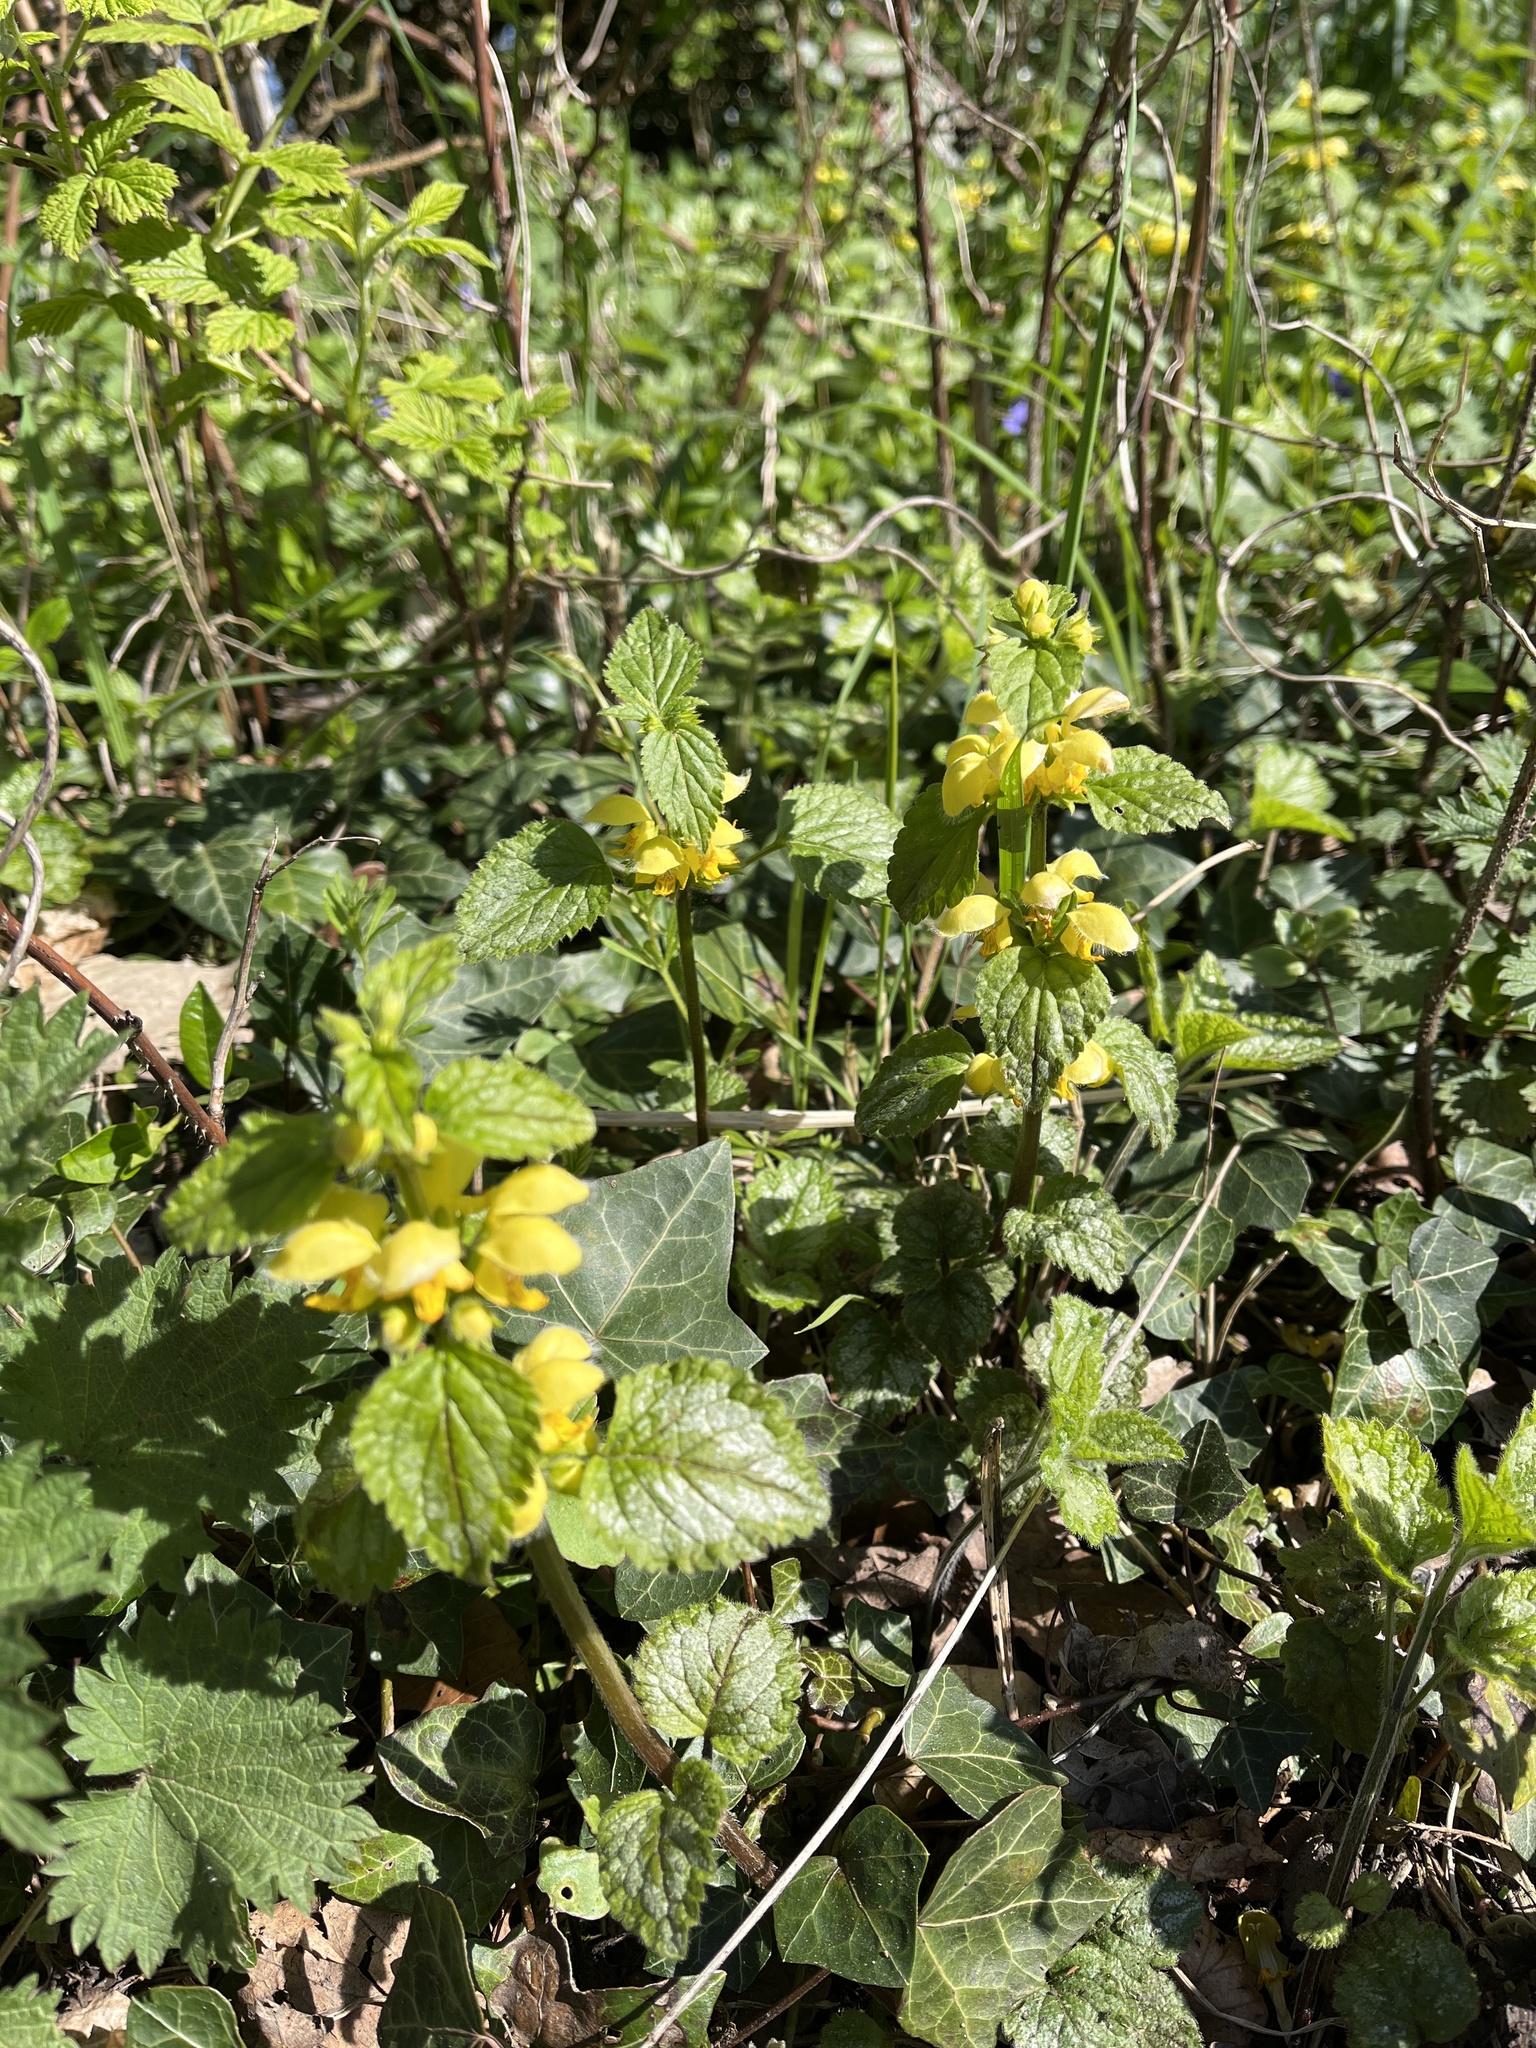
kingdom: Plantae
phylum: Tracheophyta
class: Magnoliopsida
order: Lamiales
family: Lamiaceae
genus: Lamium
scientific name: Lamium galeobdolon
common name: Yellow archangel
